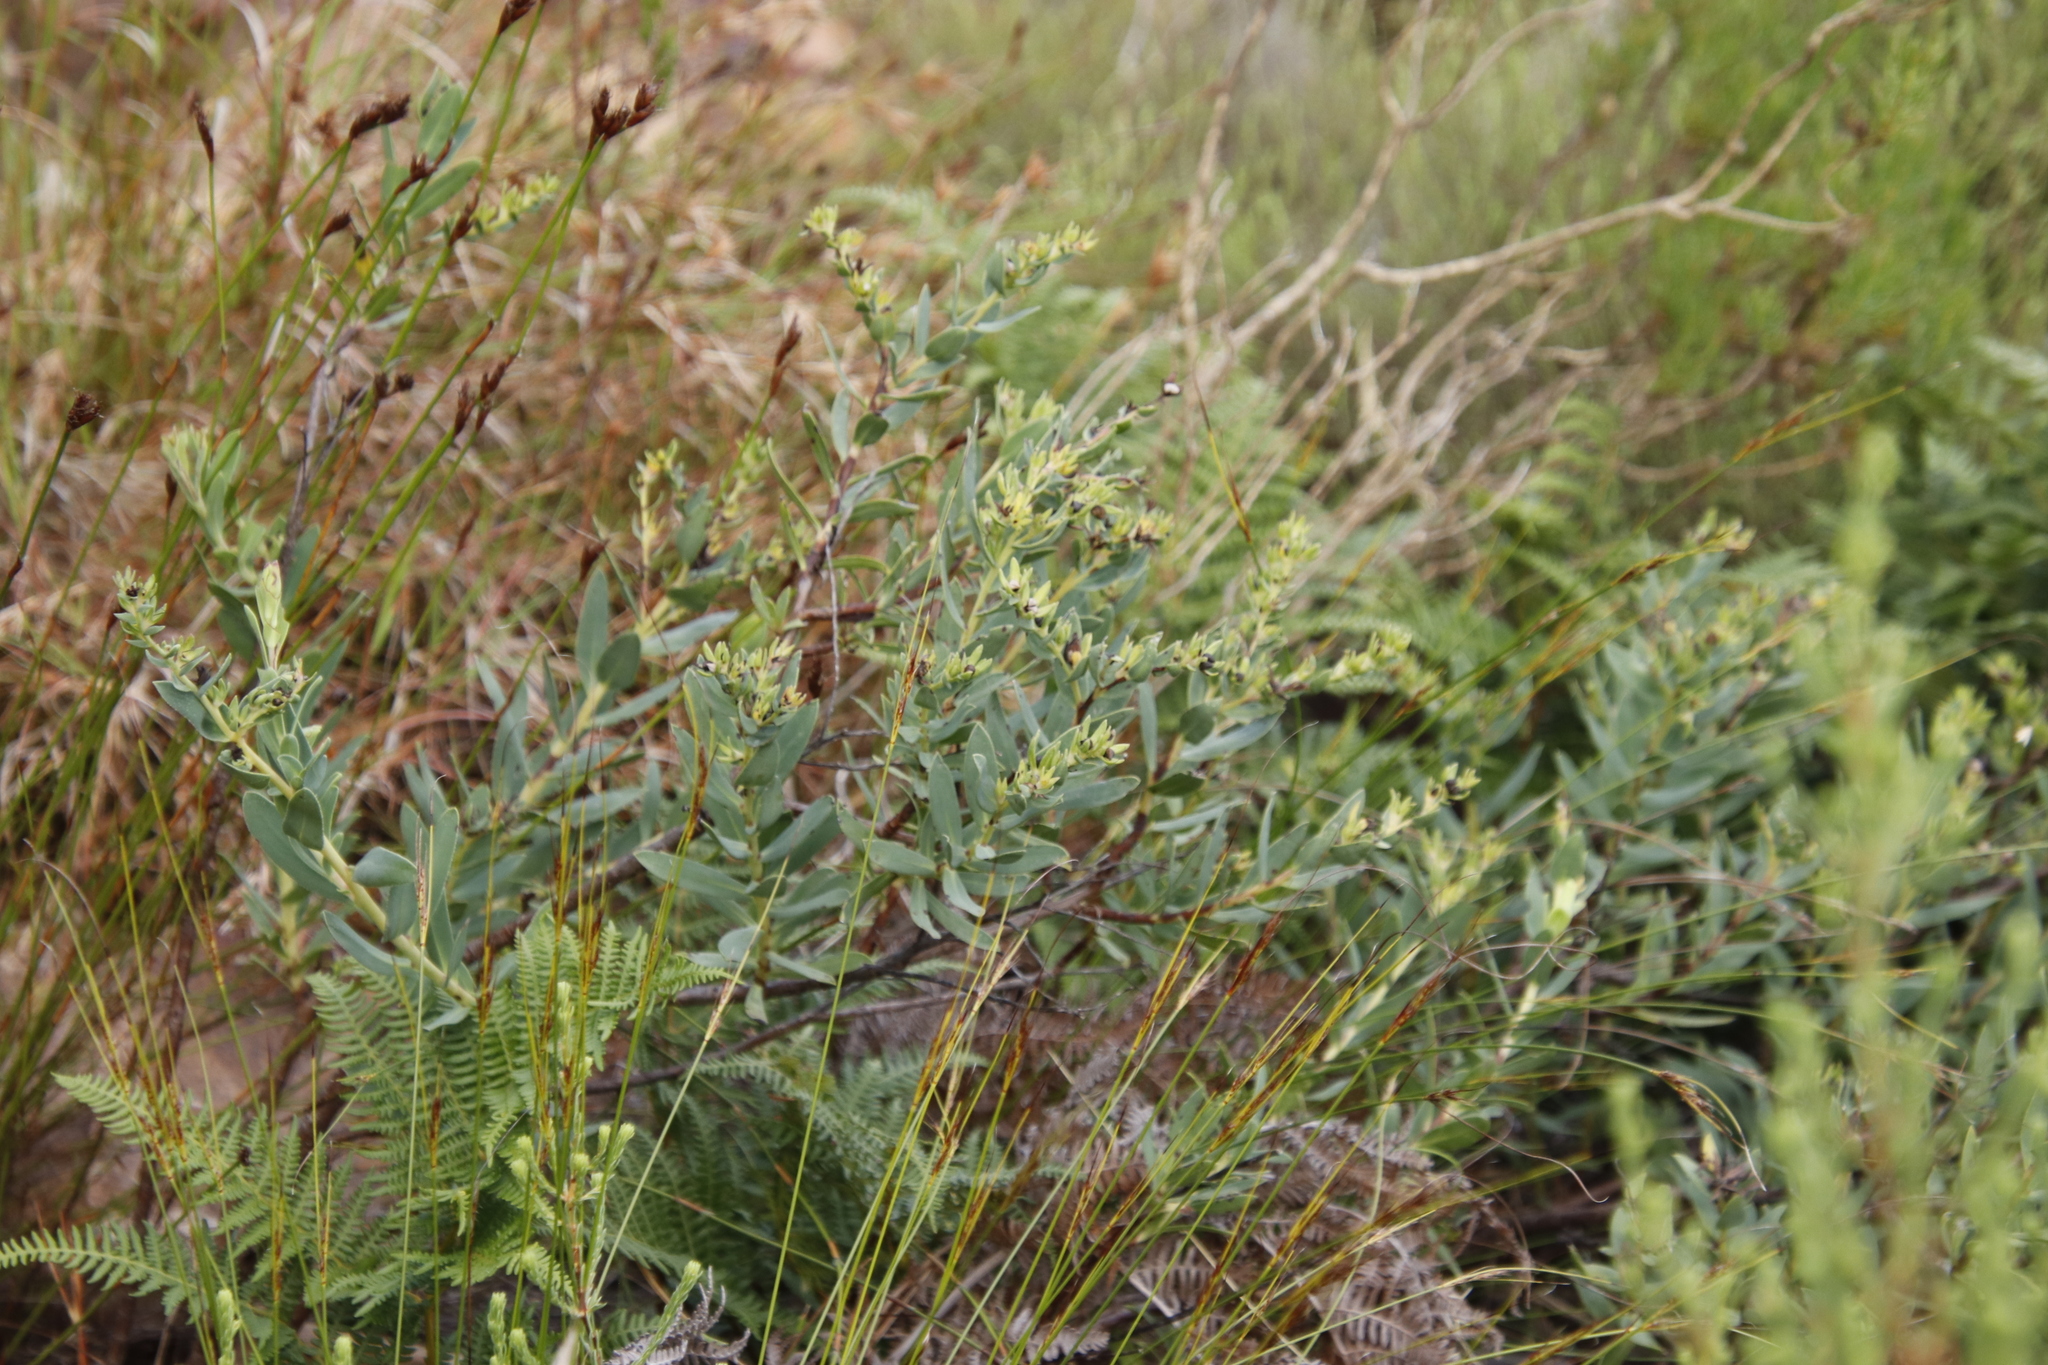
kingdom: Plantae
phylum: Tracheophyta
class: Magnoliopsida
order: Boraginales
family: Boraginaceae
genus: Lobostemon
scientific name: Lobostemon glaucophyllus
